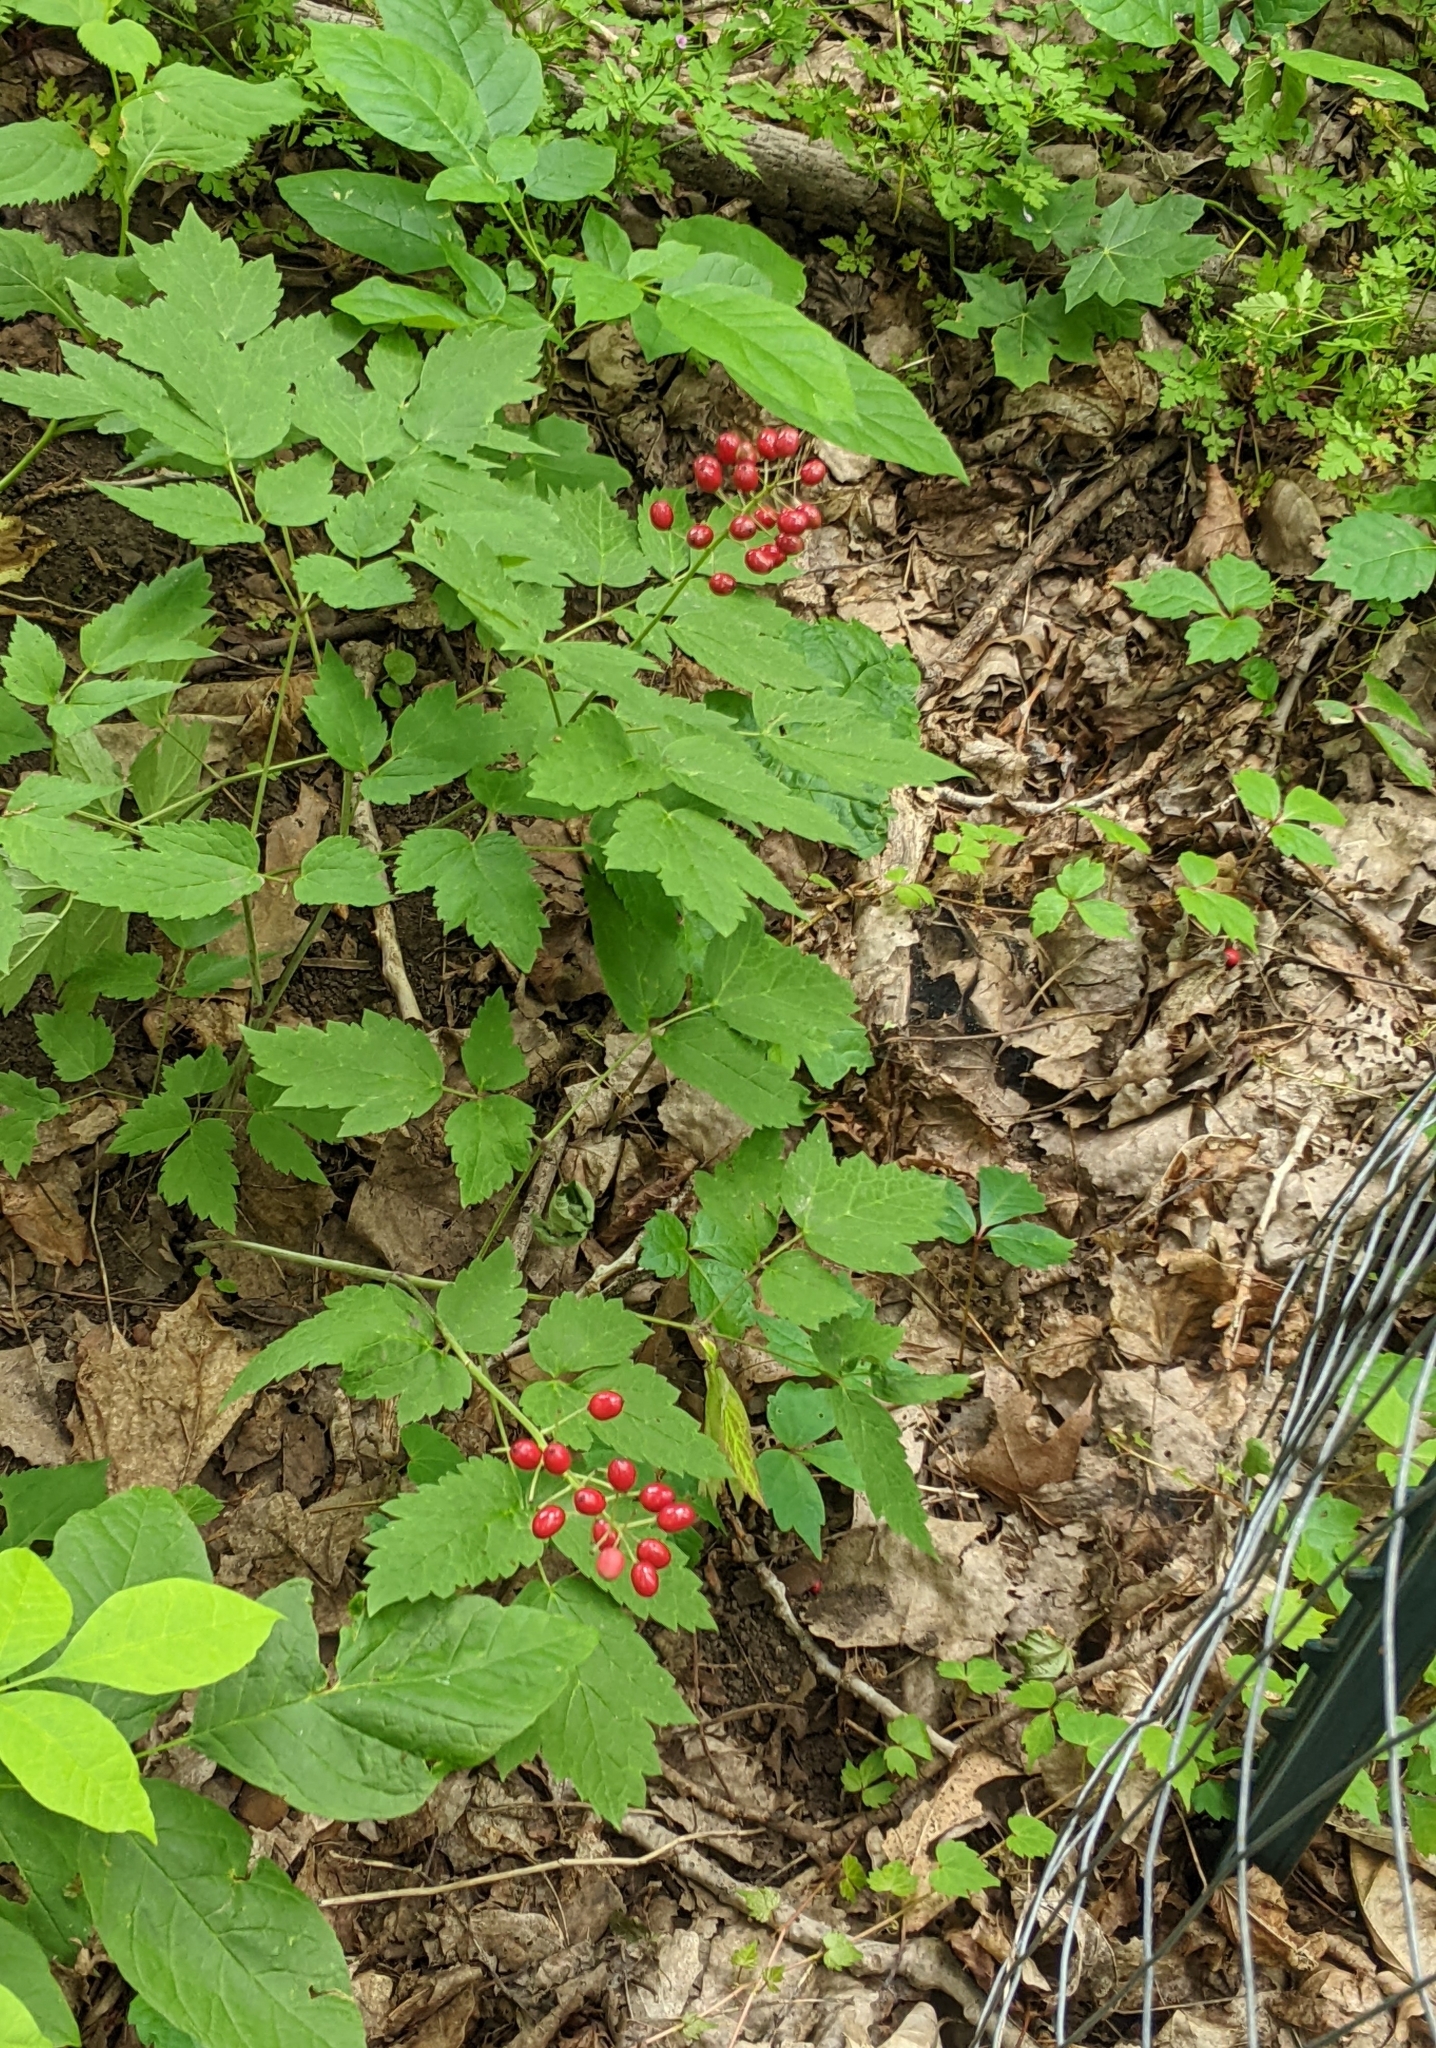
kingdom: Plantae
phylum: Tracheophyta
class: Magnoliopsida
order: Ranunculales
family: Ranunculaceae
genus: Actaea
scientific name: Actaea rubra
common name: Red baneberry
